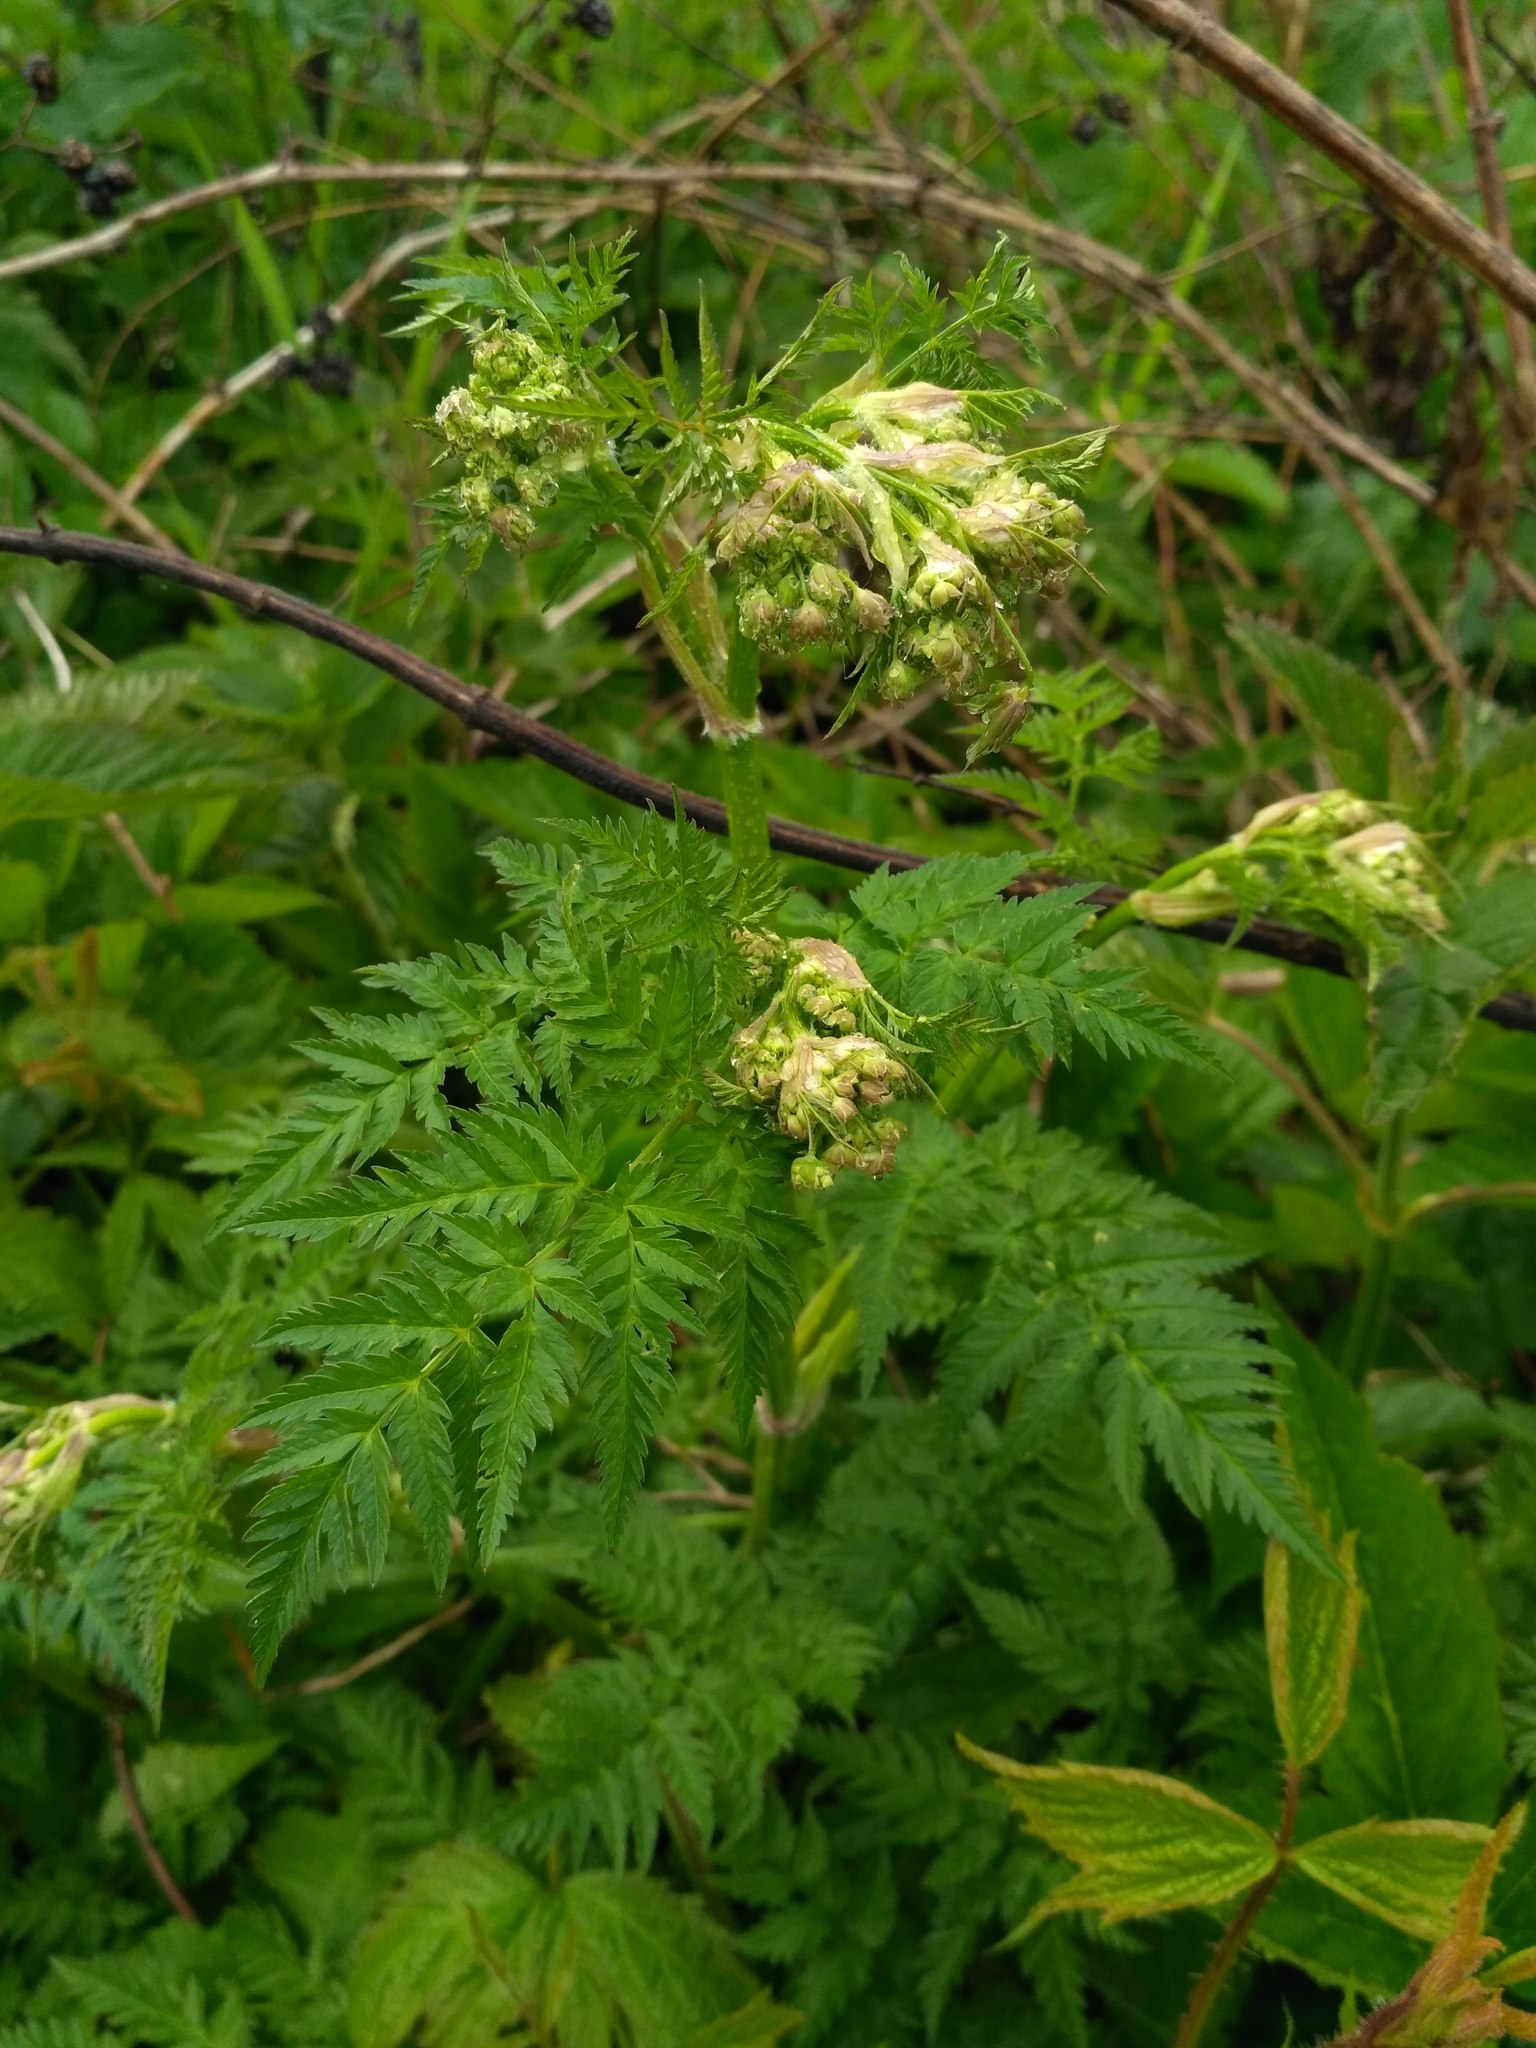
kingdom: Plantae
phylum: Tracheophyta
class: Magnoliopsida
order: Apiales
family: Apiaceae
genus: Anthriscus
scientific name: Anthriscus sylvestris
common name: Cow parsley
